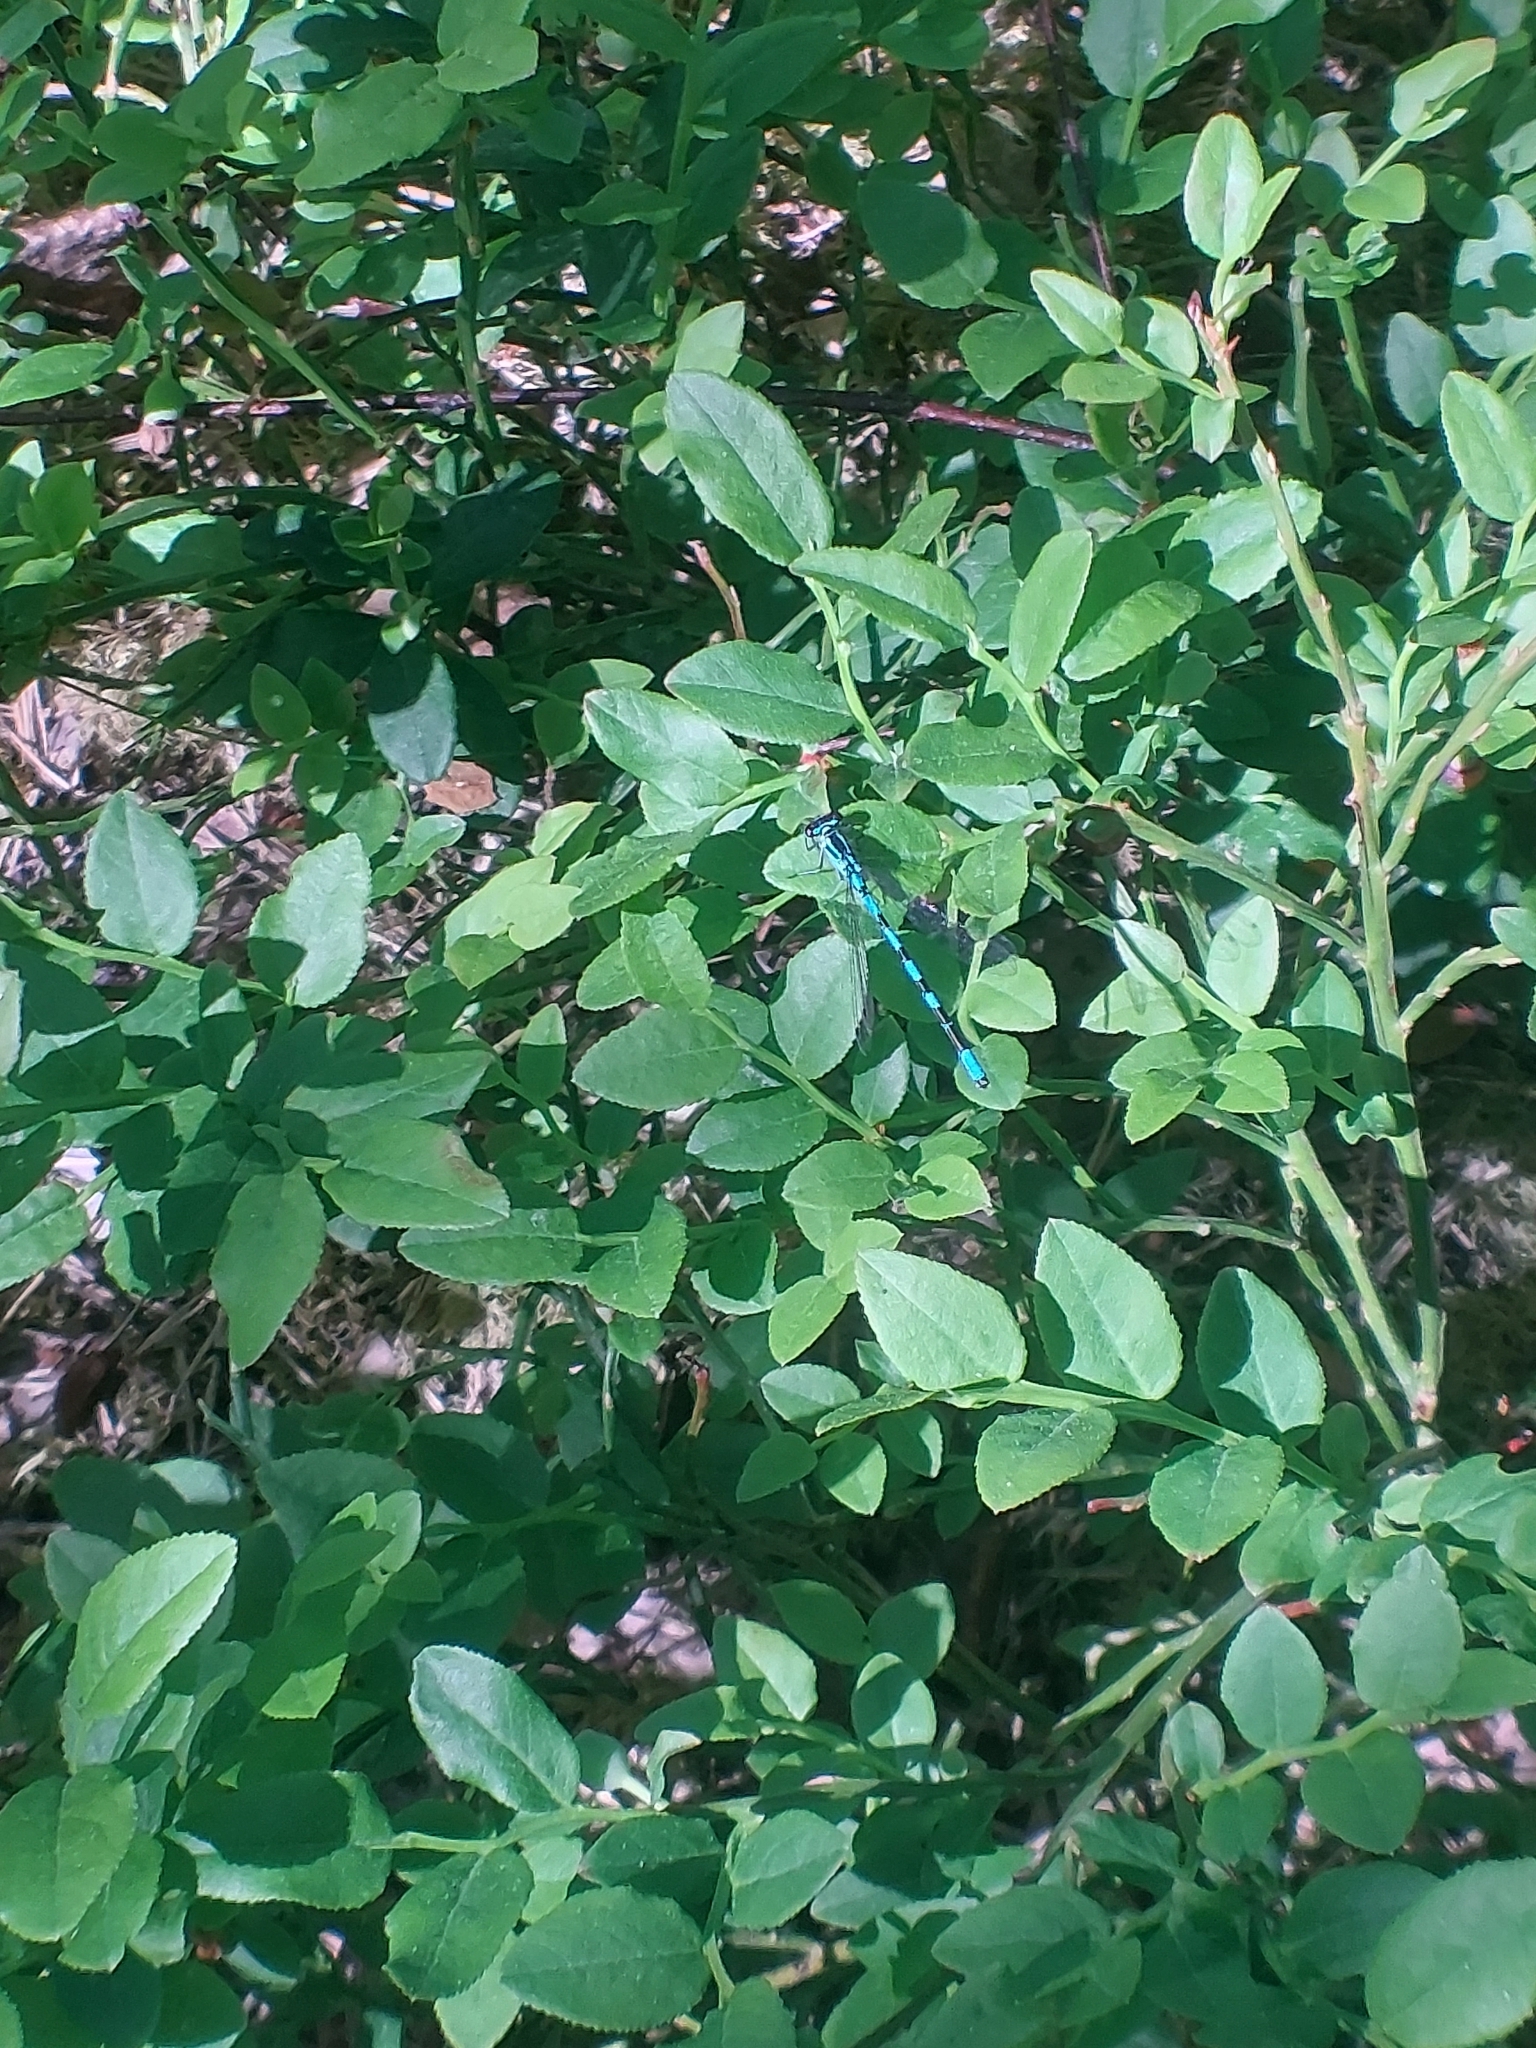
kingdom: Animalia
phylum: Arthropoda
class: Insecta
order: Odonata
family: Coenagrionidae
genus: Coenagrion
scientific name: Coenagrion hastulatum
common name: Spearhead bluet
